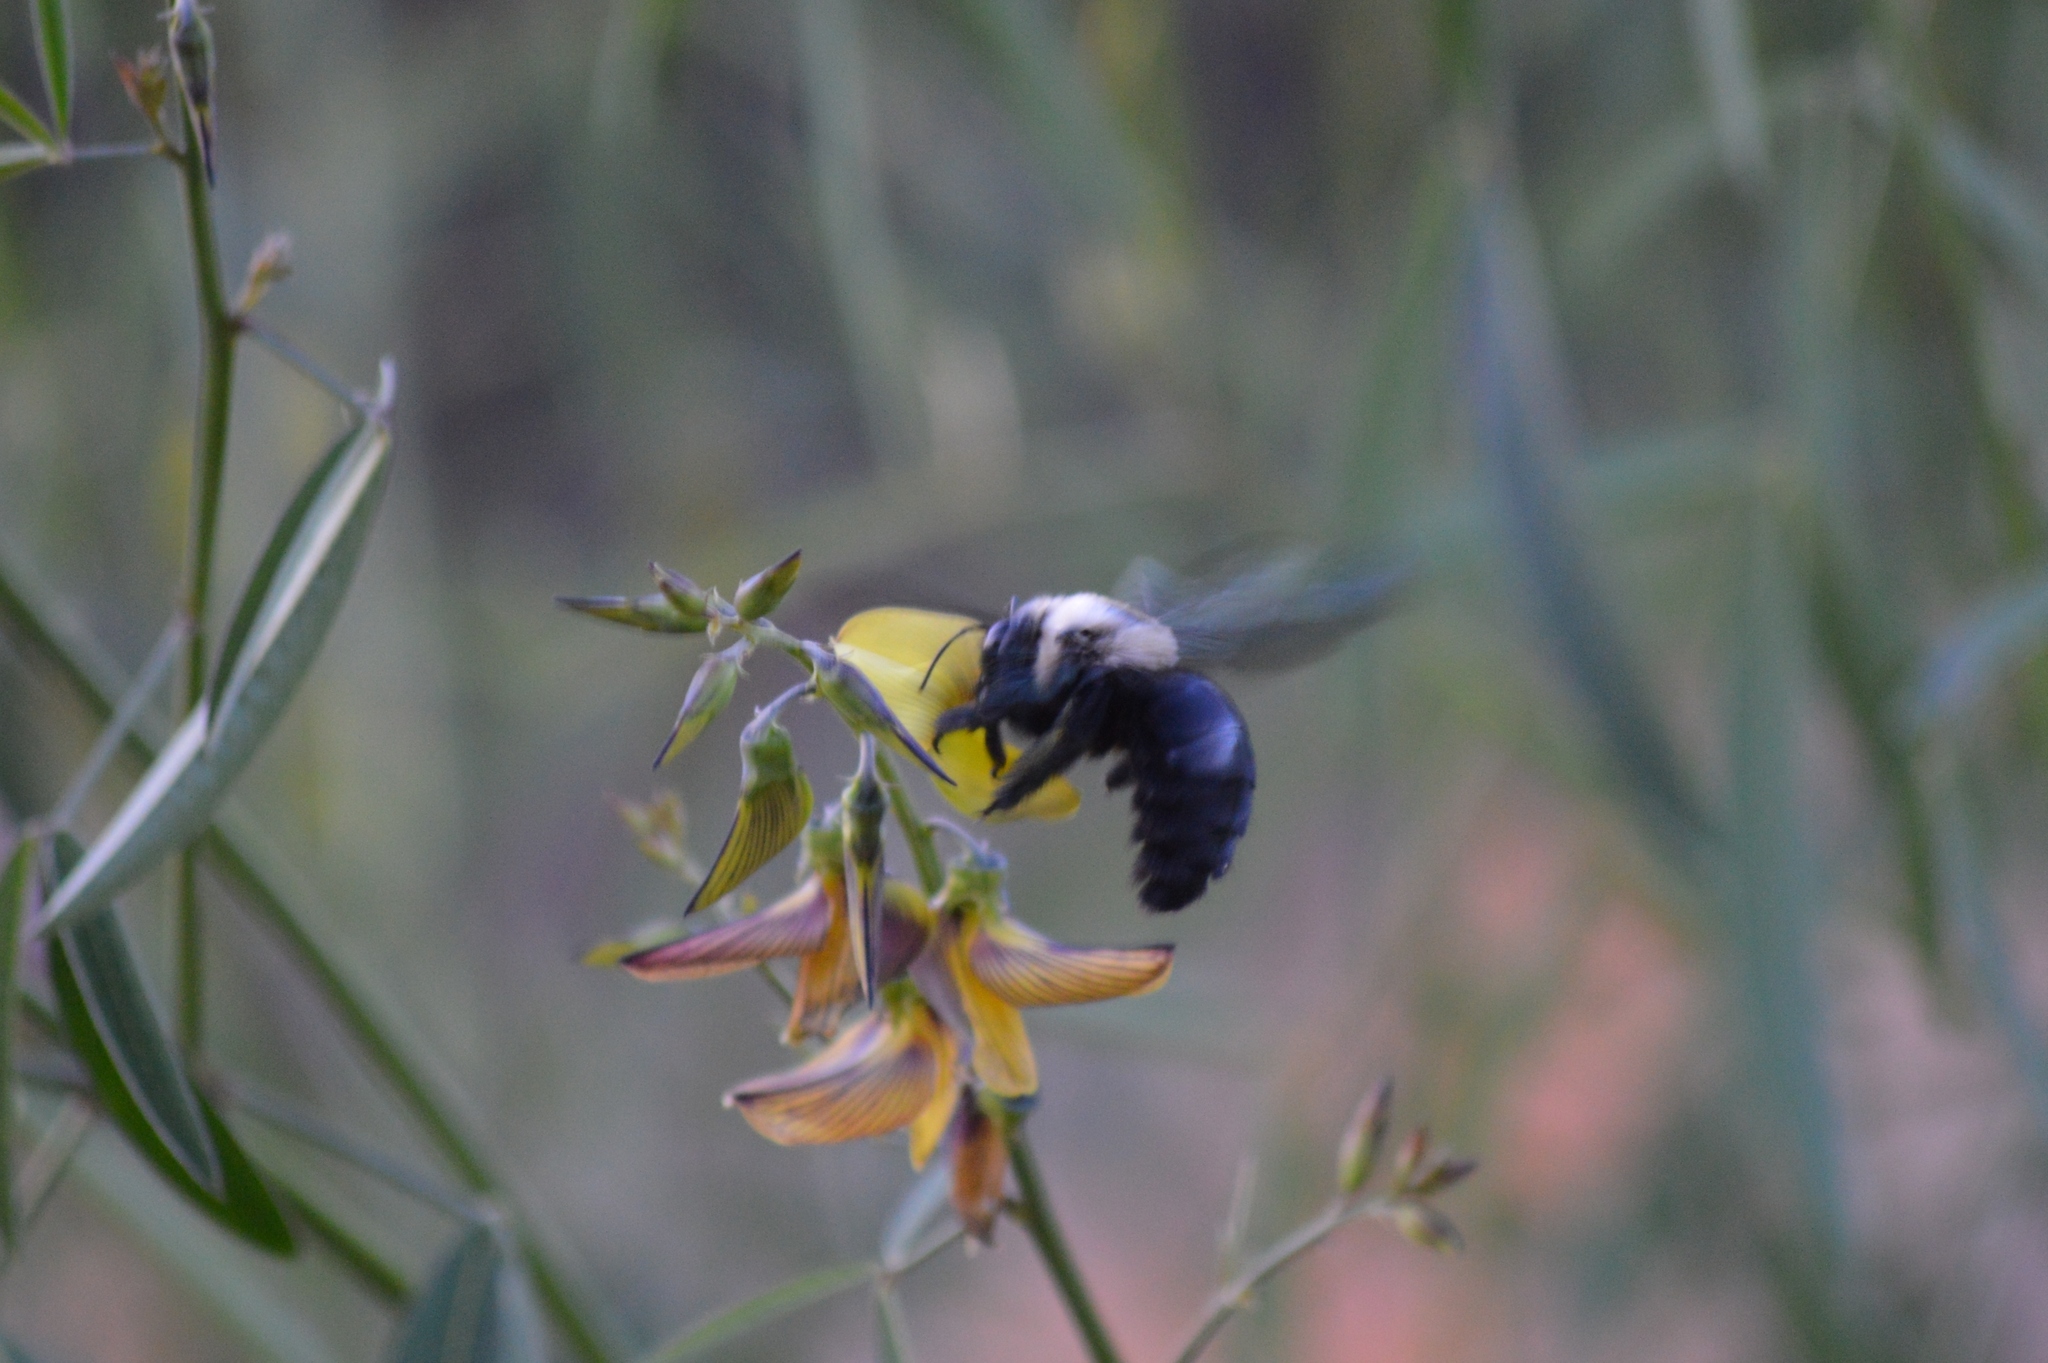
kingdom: Animalia
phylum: Arthropoda
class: Insecta
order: Hymenoptera
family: Apidae
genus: Xylocopa
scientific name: Xylocopa grisescens
